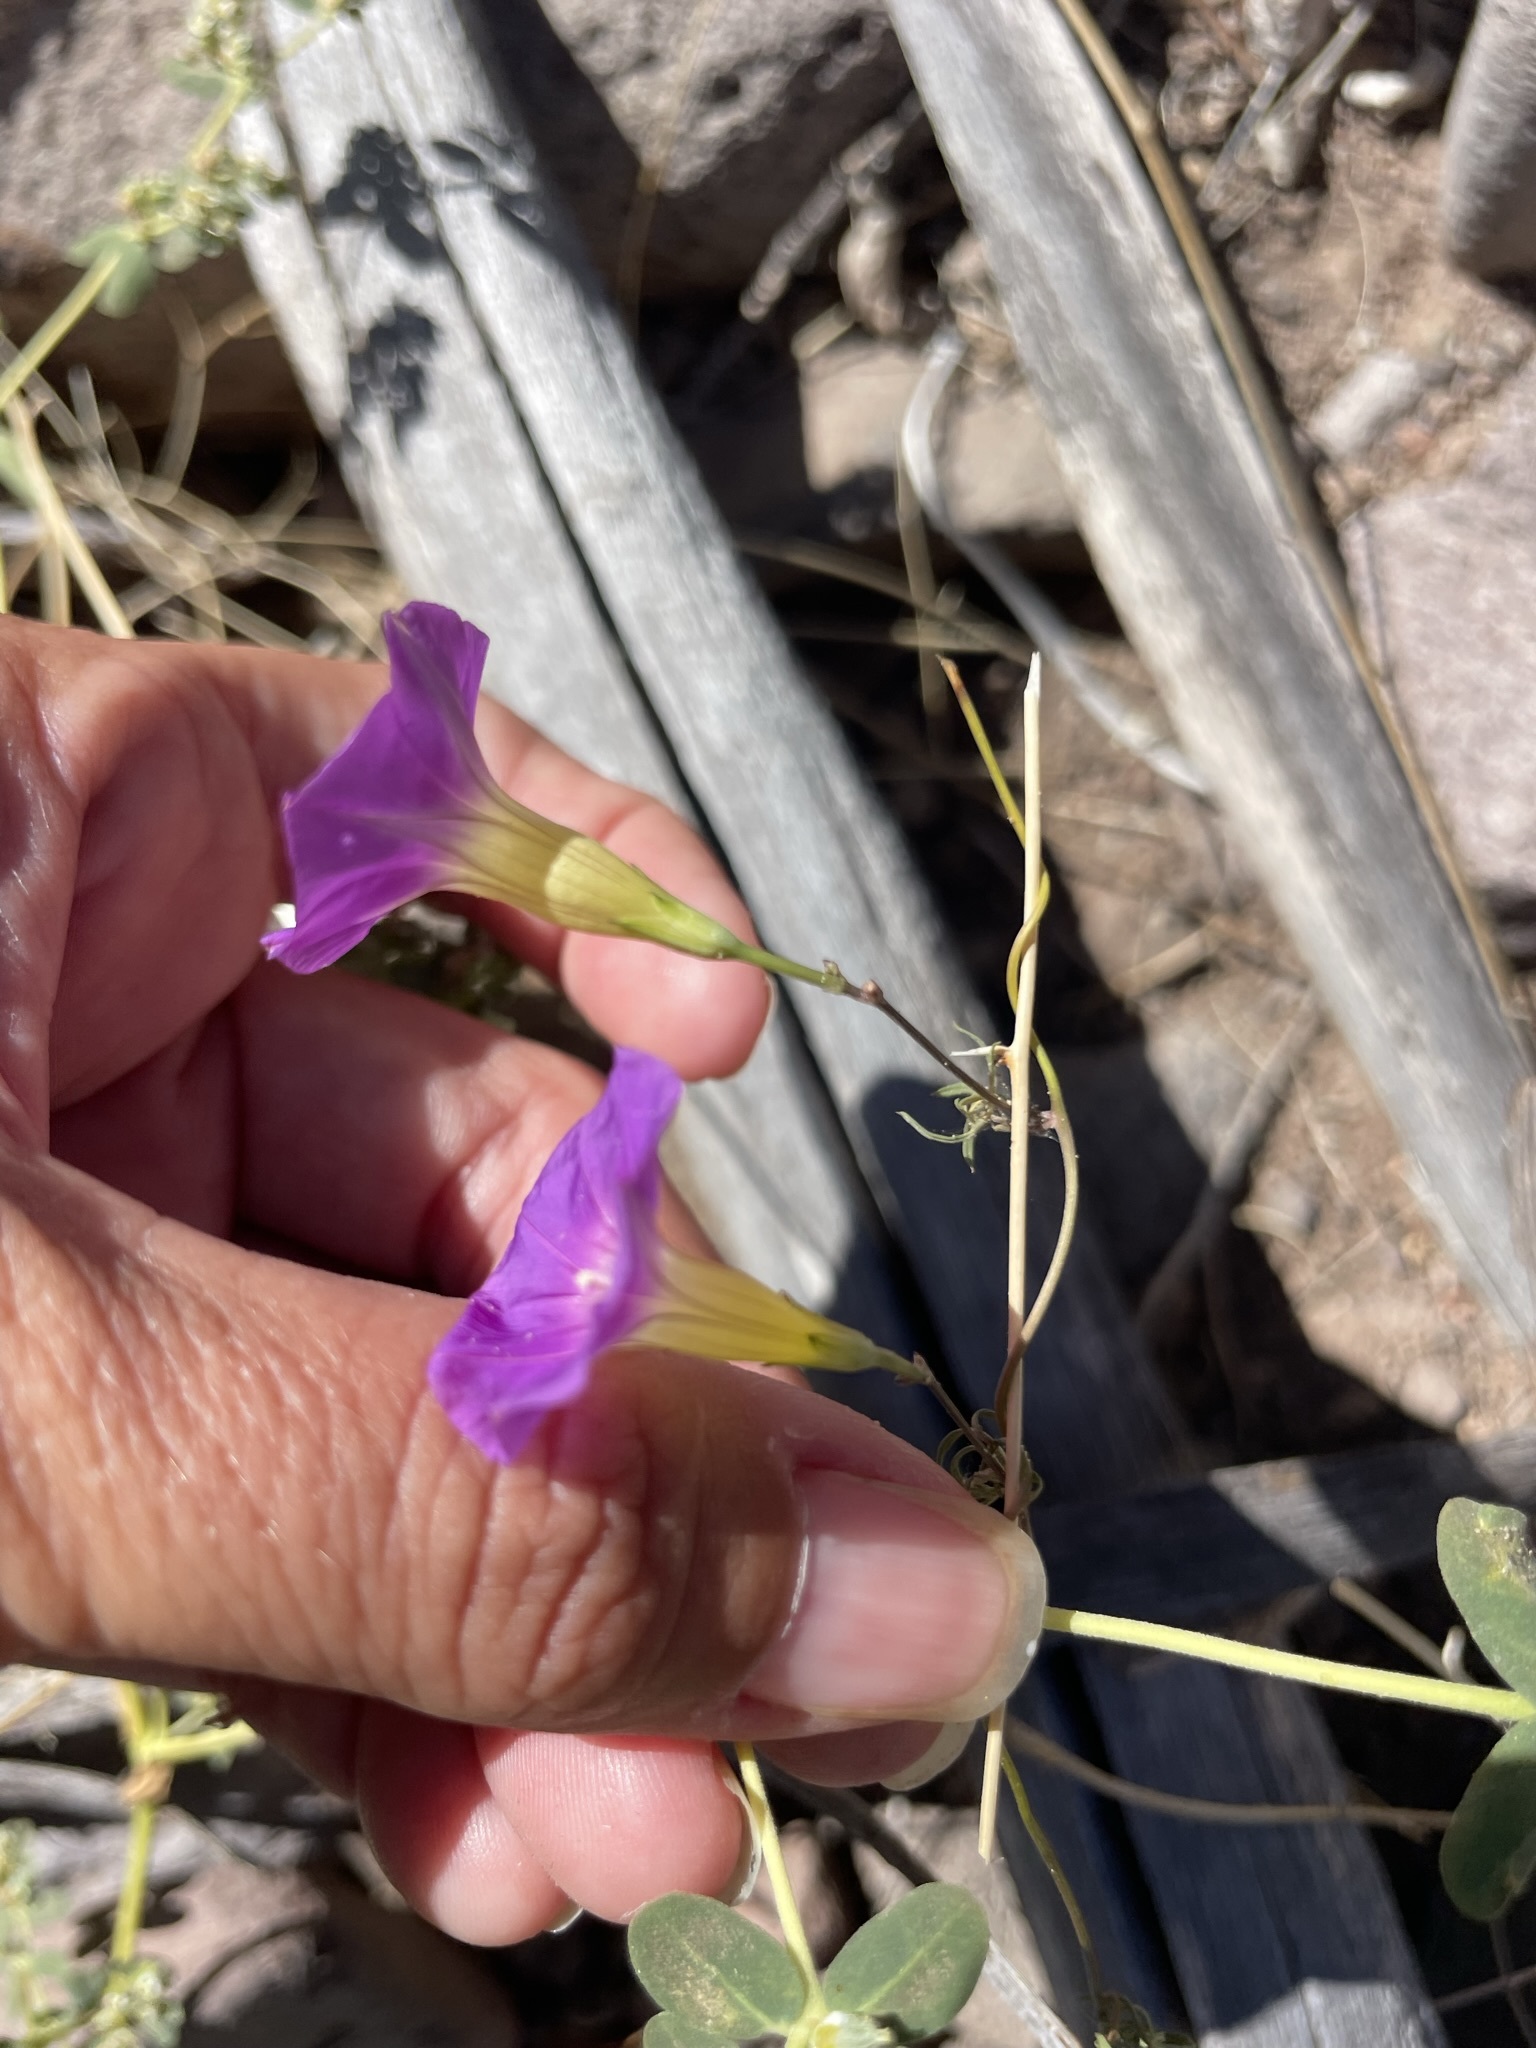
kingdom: Plantae
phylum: Tracheophyta
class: Magnoliopsida
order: Solanales
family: Convolvulaceae
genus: Ipomoea
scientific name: Ipomoea ternifolia
